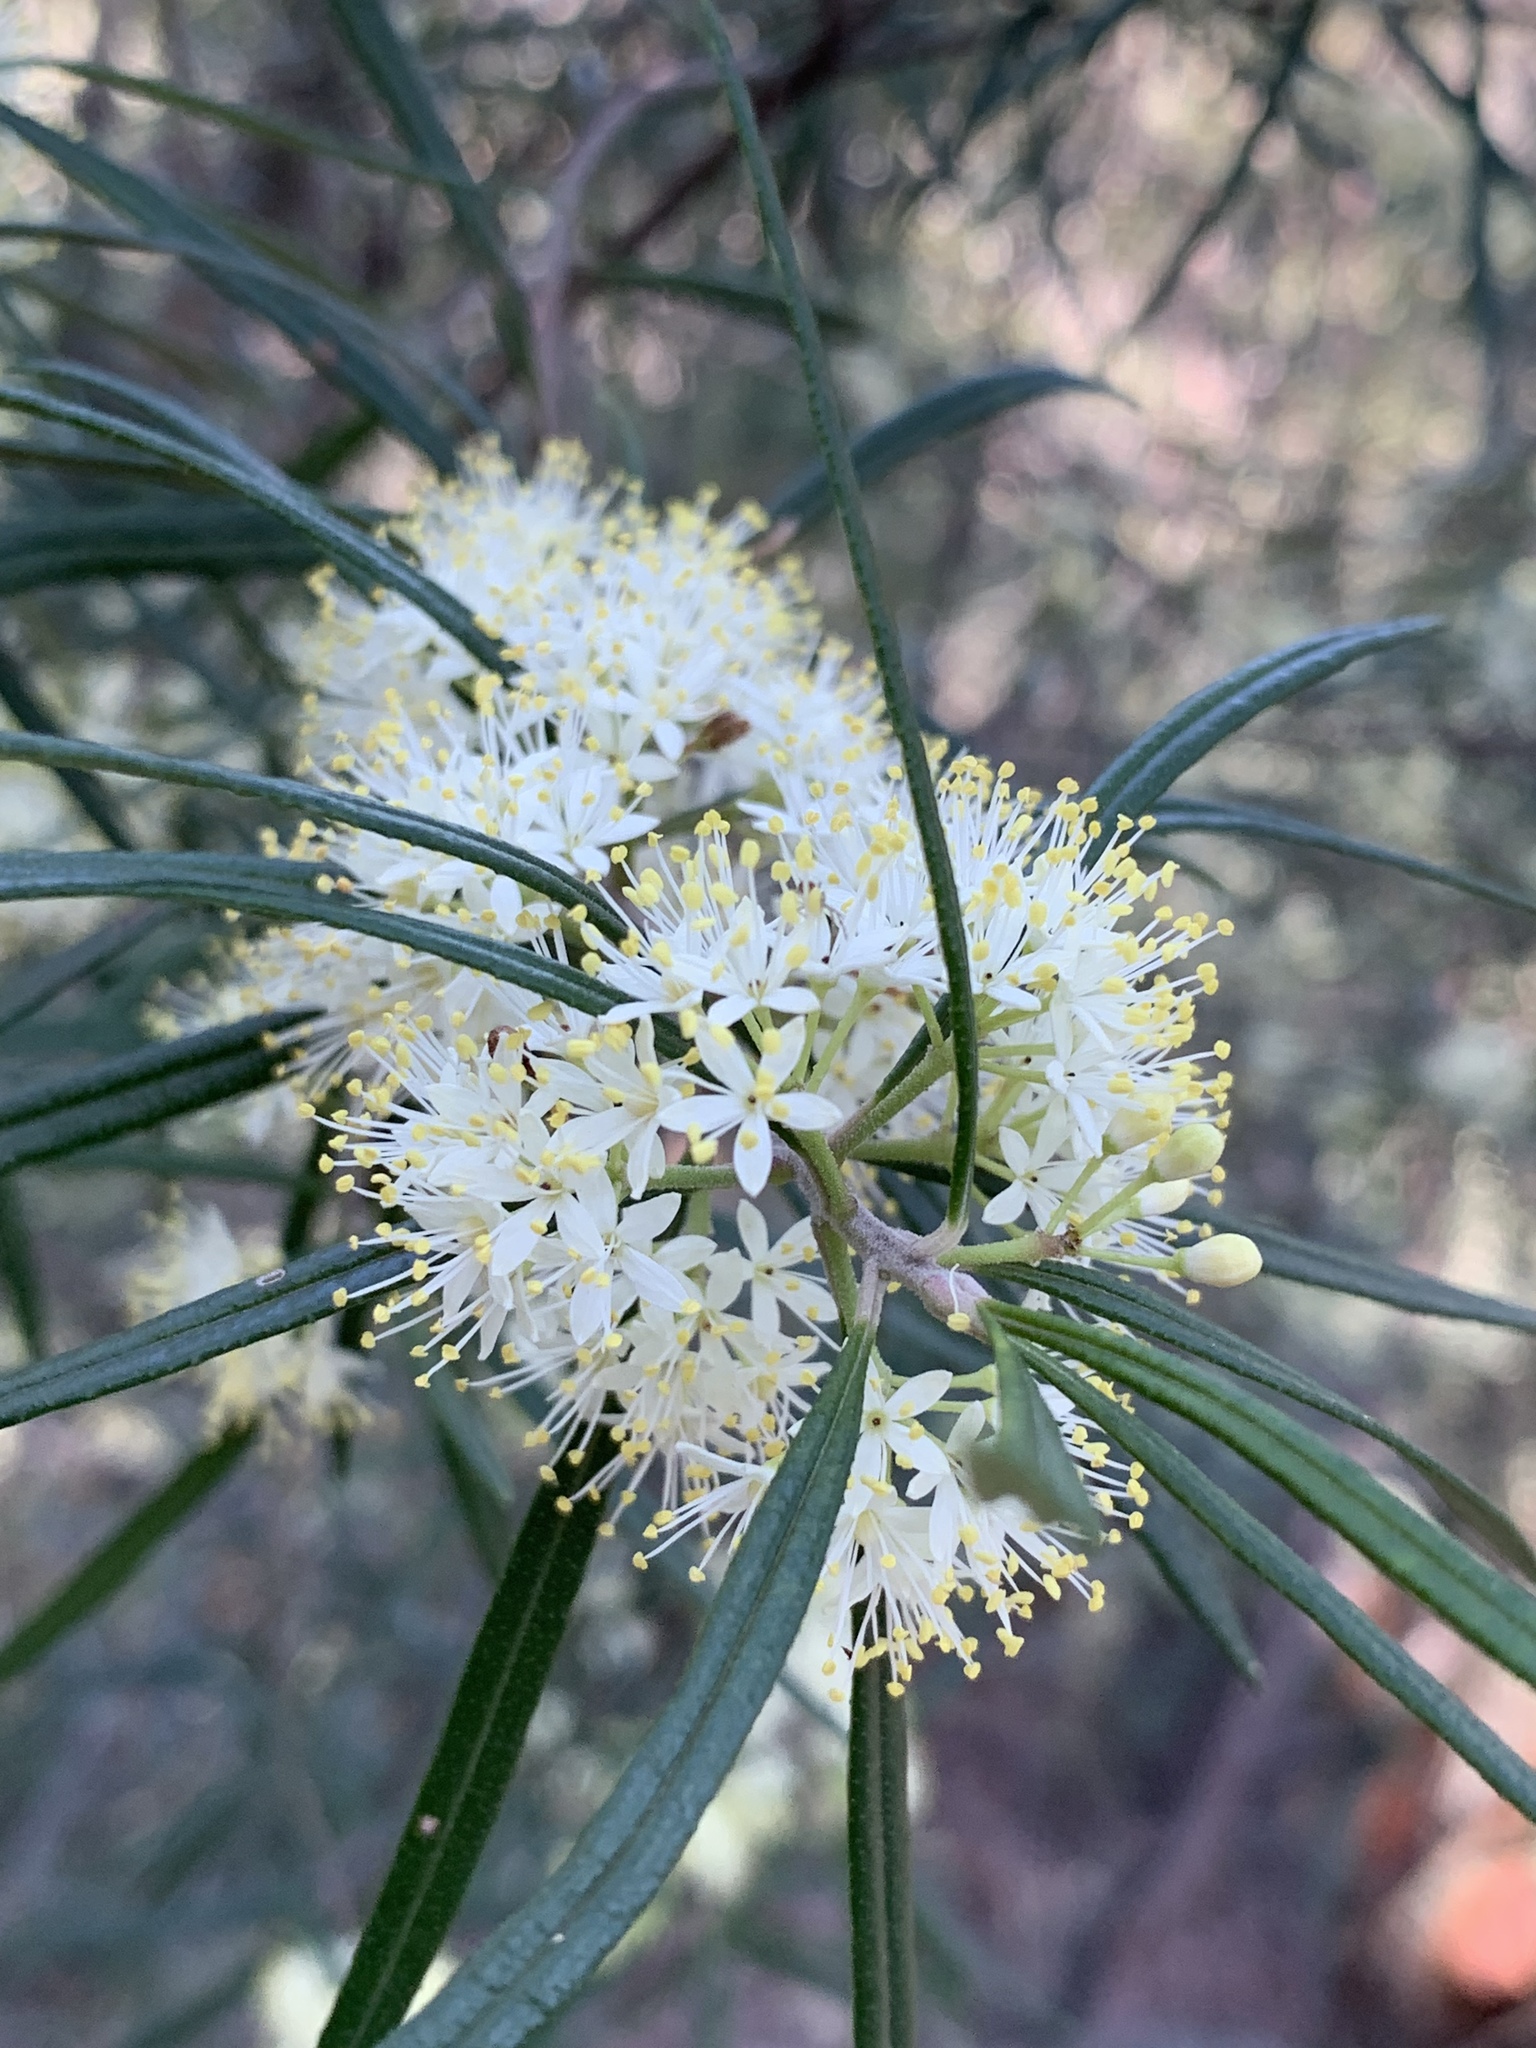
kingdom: Plantae
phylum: Tracheophyta
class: Magnoliopsida
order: Sapindales
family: Rutaceae
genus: Leionema
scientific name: Leionema dentatum
